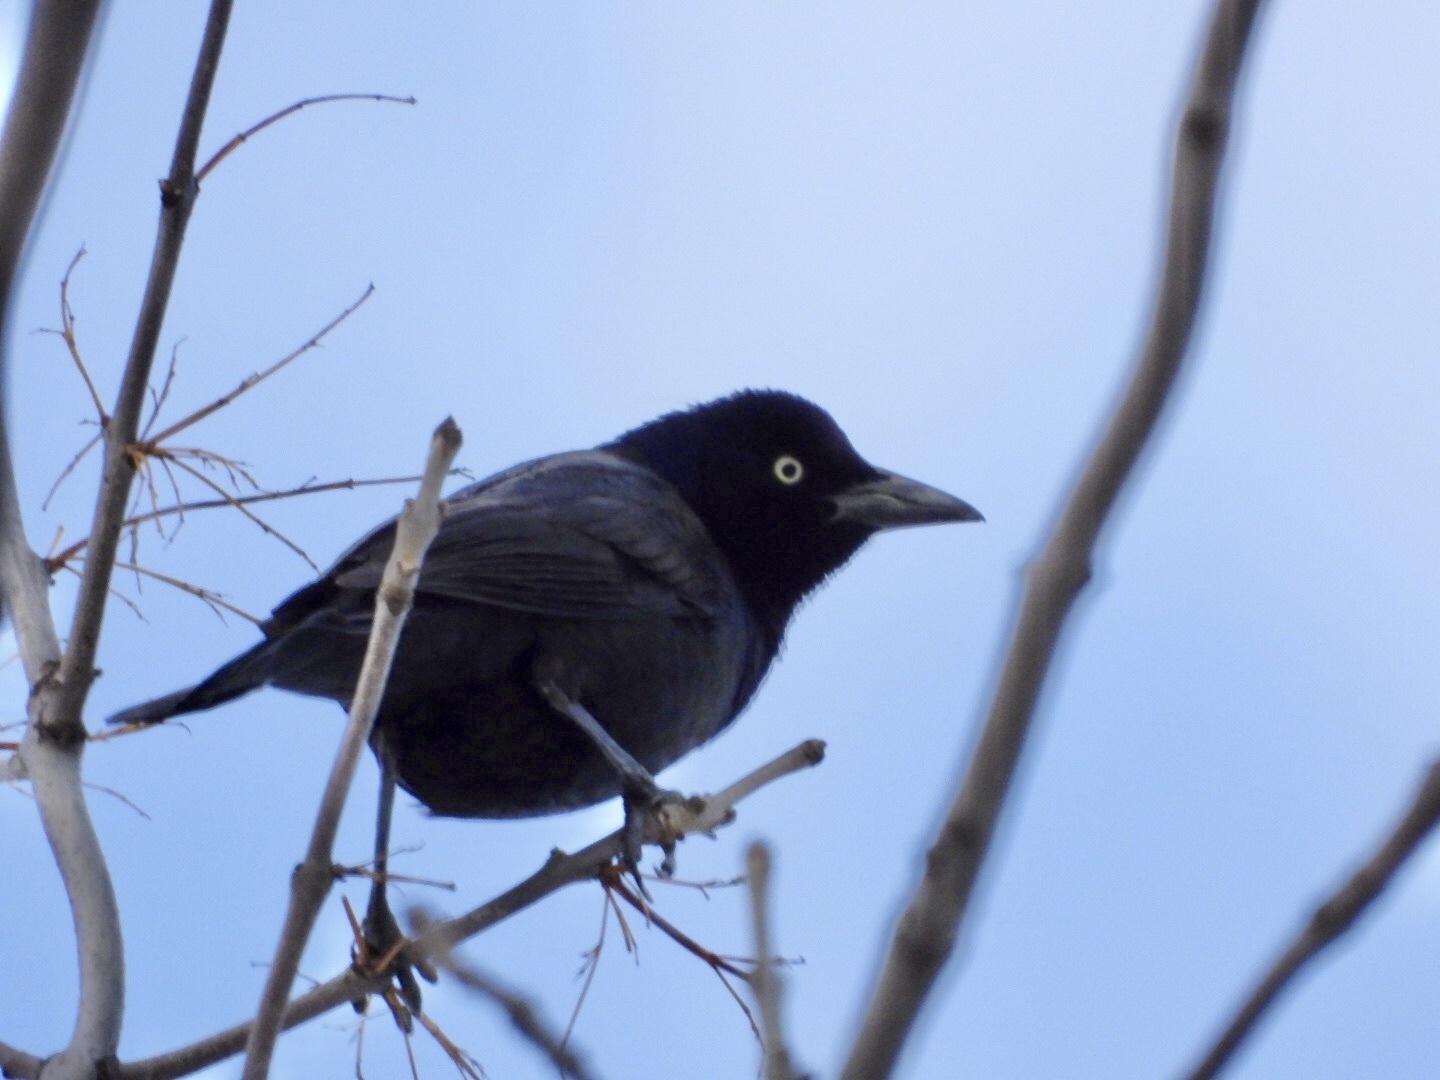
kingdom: Animalia
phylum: Chordata
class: Aves
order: Passeriformes
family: Icteridae
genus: Quiscalus
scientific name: Quiscalus quiscula
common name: Common grackle
